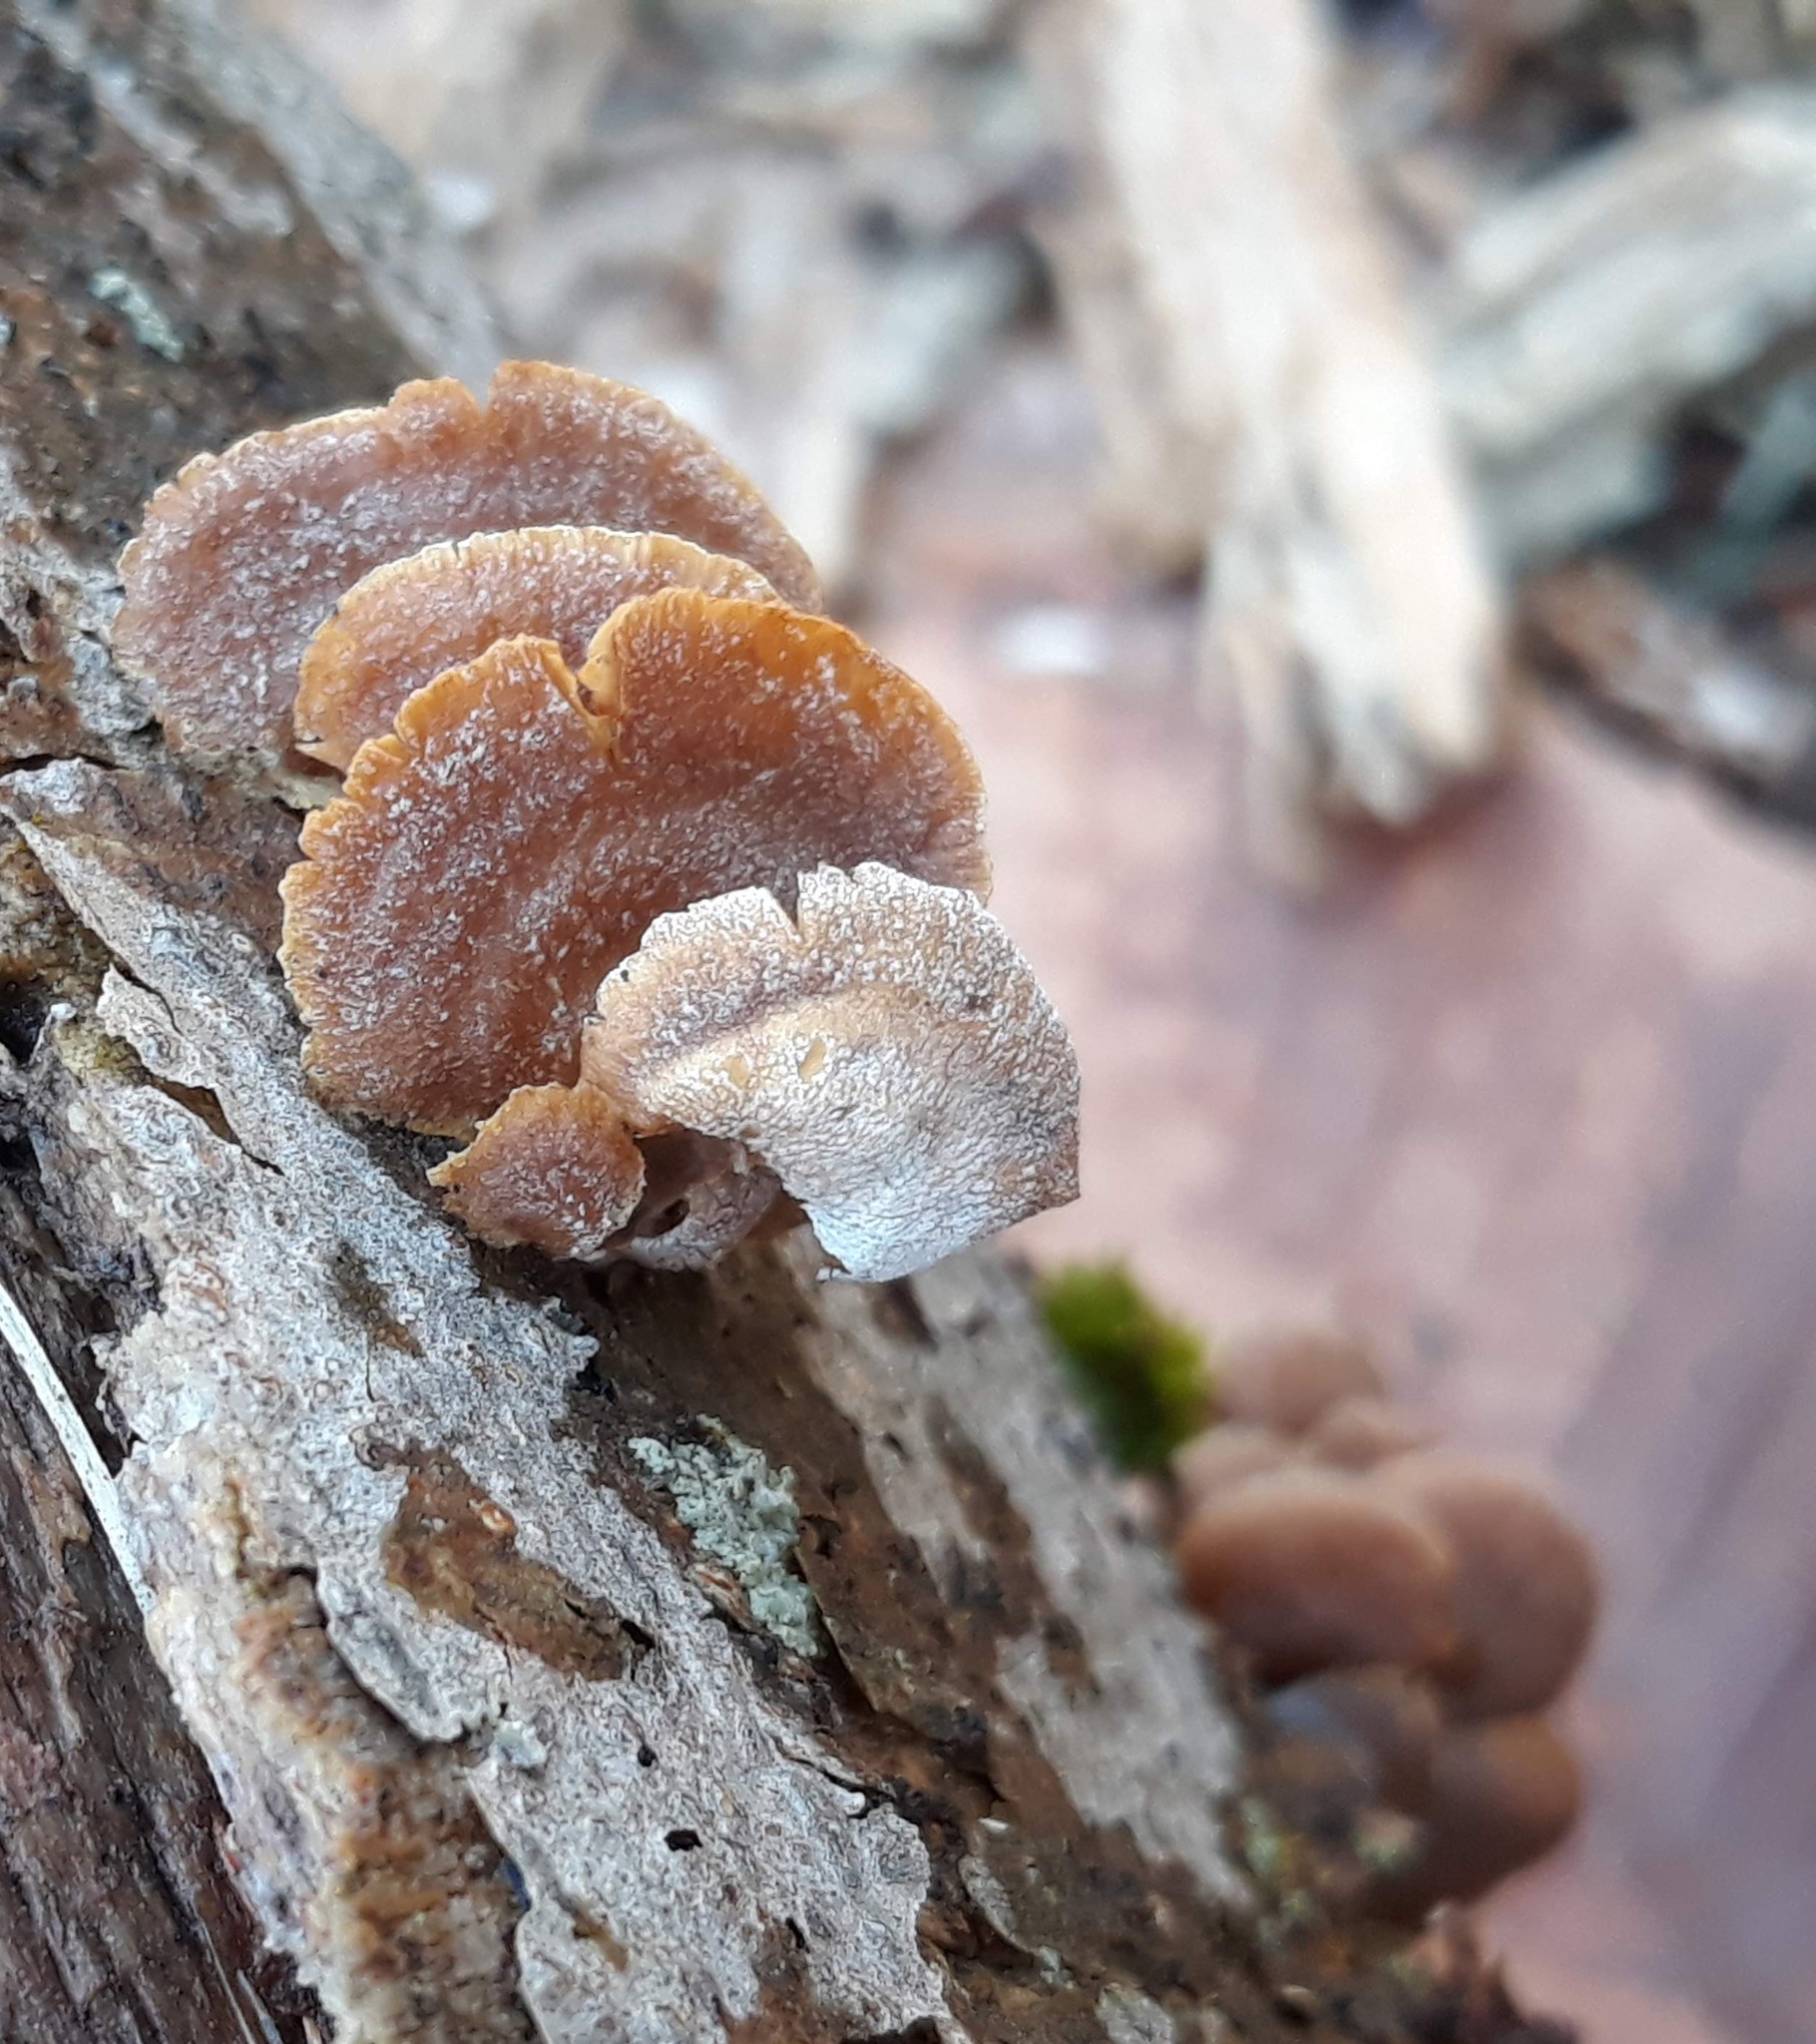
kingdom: Fungi
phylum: Basidiomycota
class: Agaricomycetes
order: Agaricales
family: Mycenaceae
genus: Panellus
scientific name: Panellus stipticus
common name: Bitter oysterling
